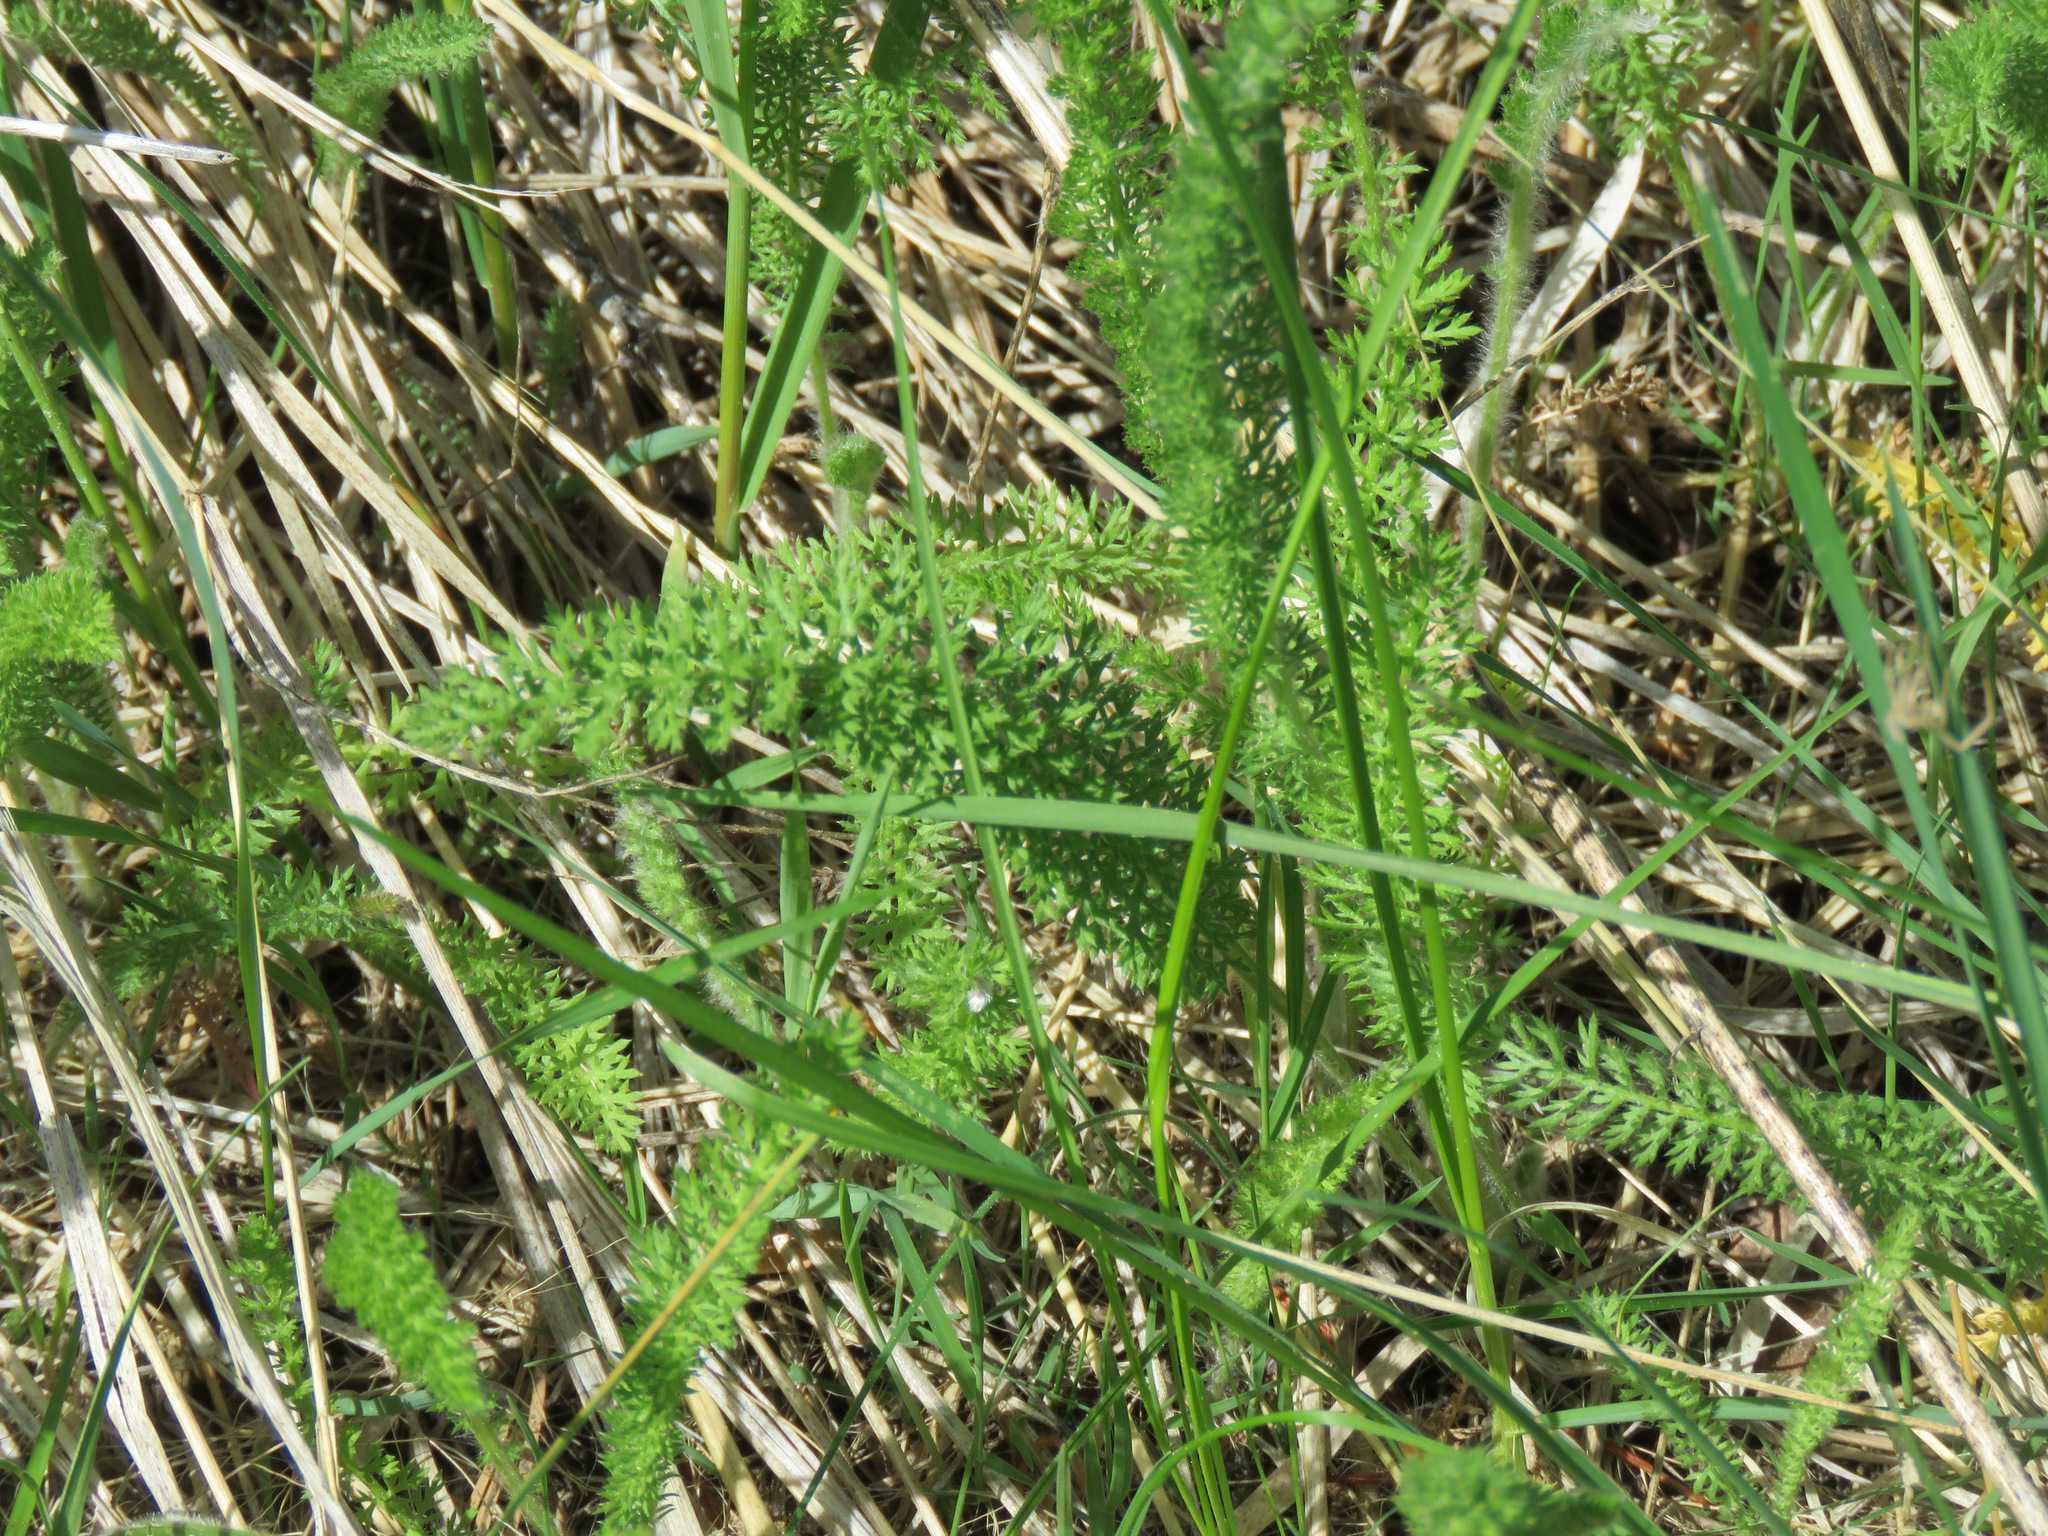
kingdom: Plantae
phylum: Tracheophyta
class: Magnoliopsida
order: Asterales
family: Asteraceae
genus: Achillea
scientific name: Achillea millefolium
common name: Yarrow
